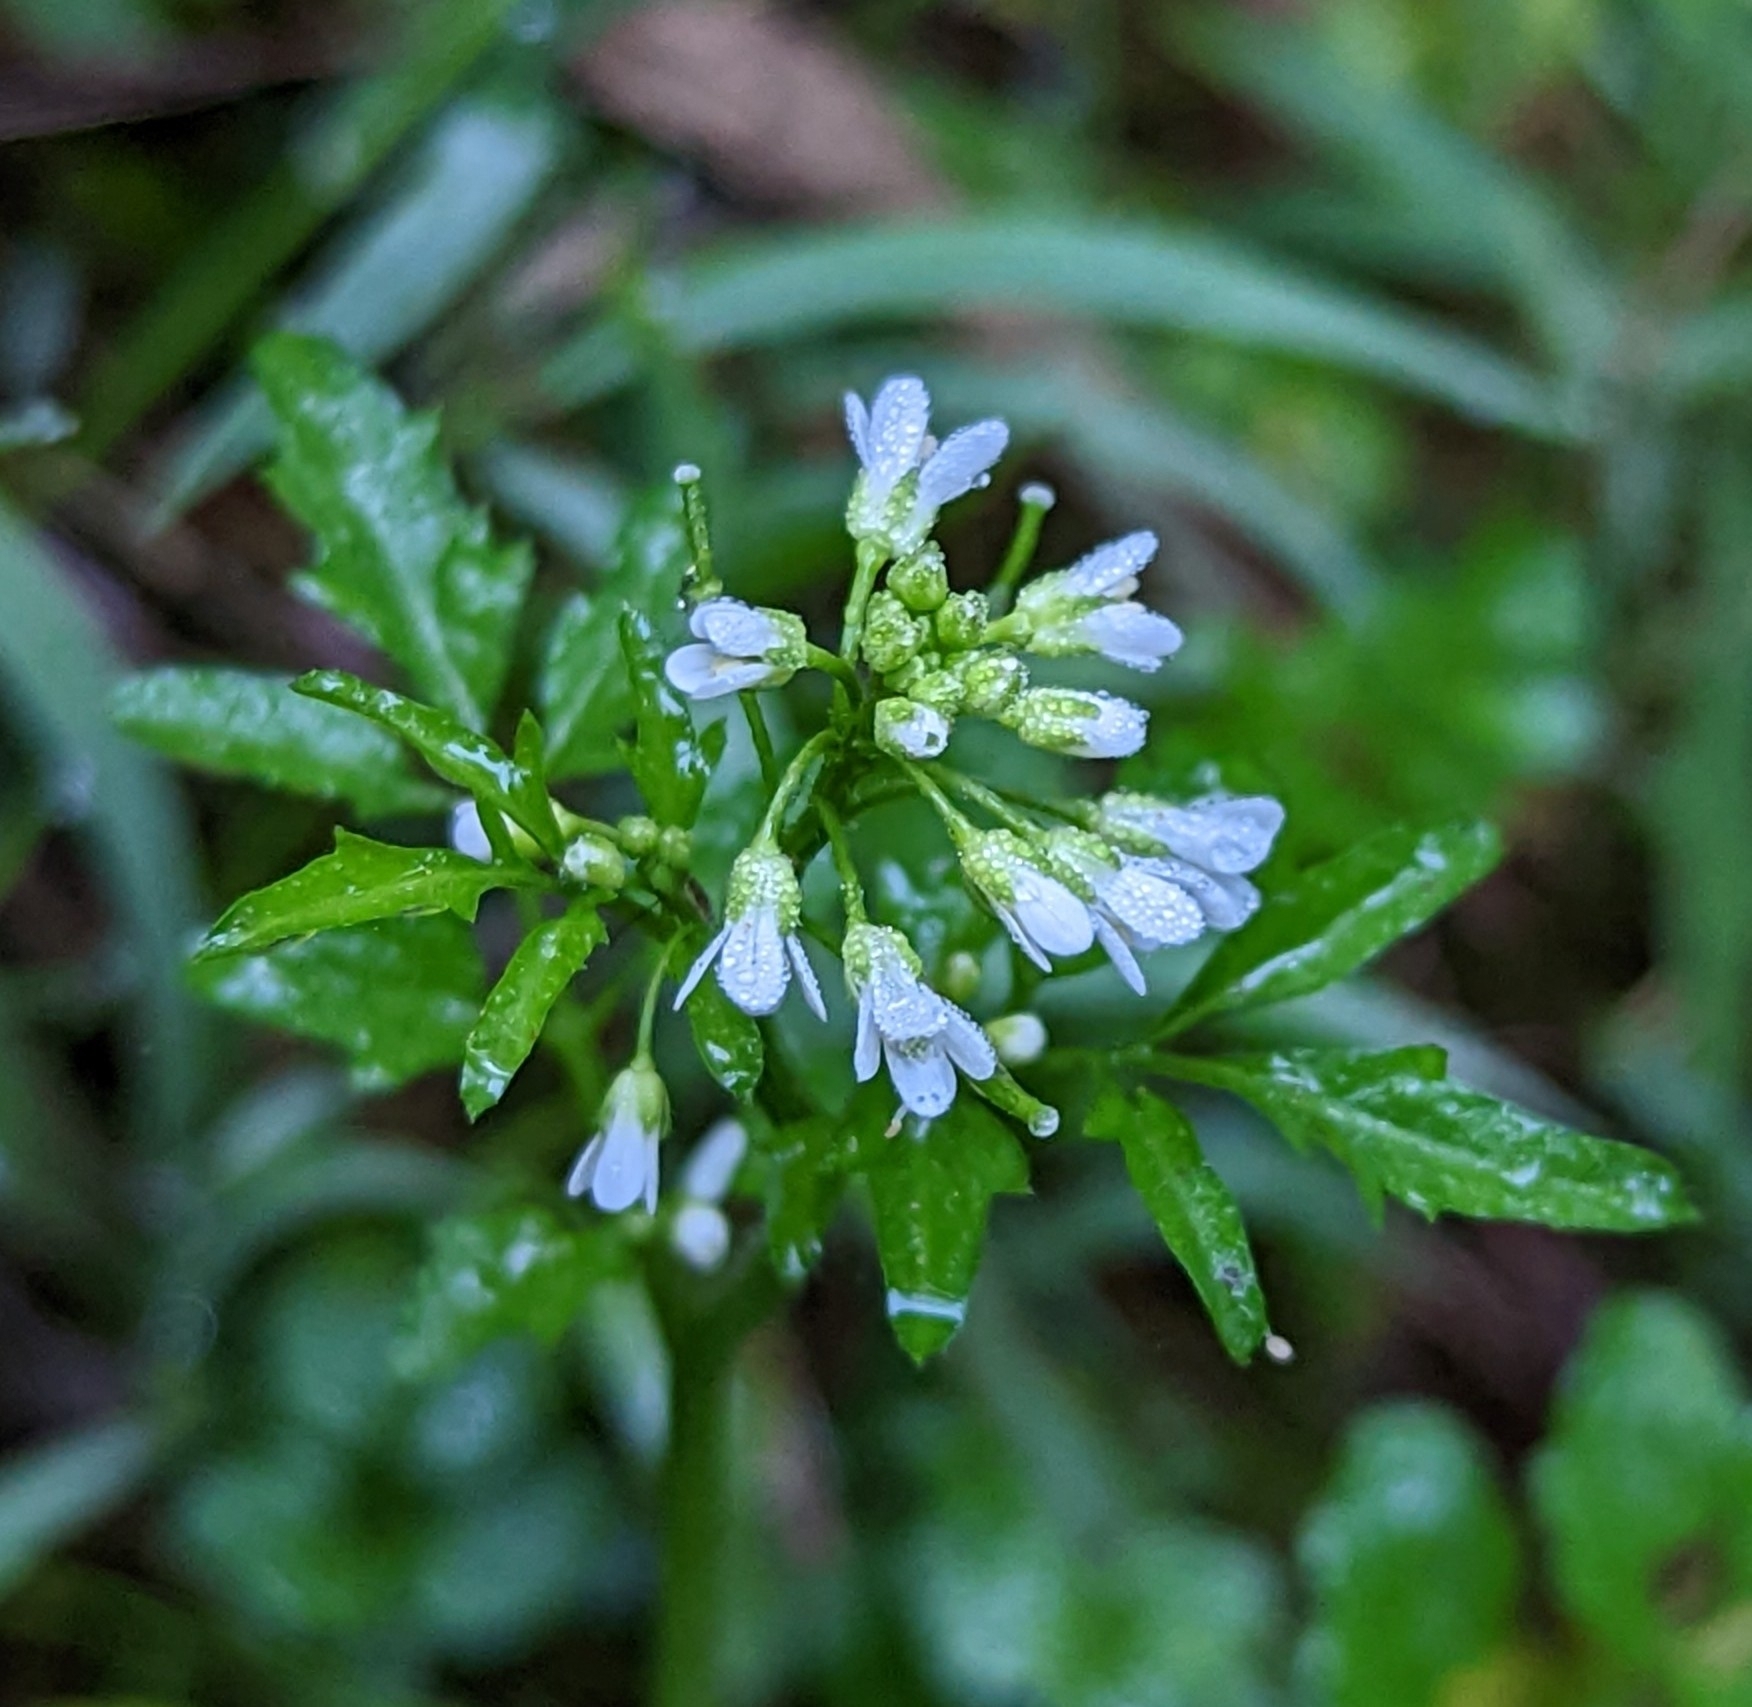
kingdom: Plantae
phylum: Tracheophyta
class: Magnoliopsida
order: Brassicales
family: Brassicaceae
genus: Cardamine
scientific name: Cardamine flexuosa
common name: Woodland bittercress
